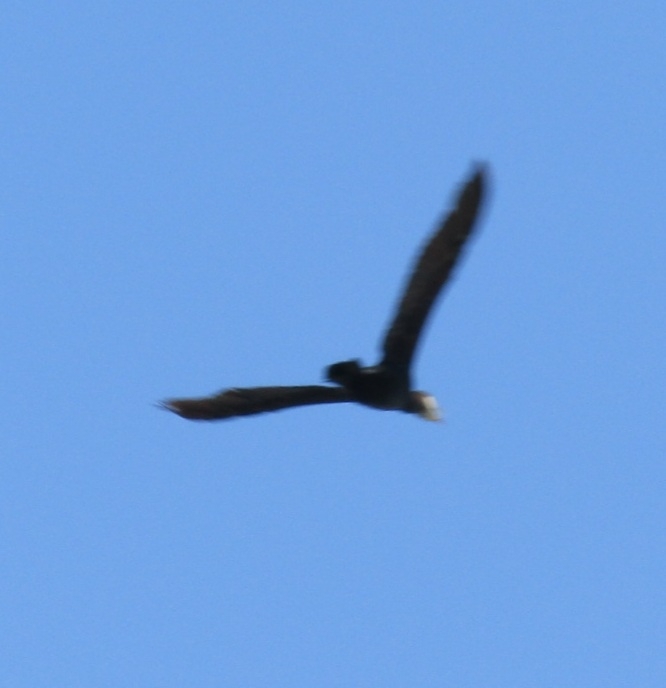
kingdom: Animalia
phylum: Chordata
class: Aves
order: Suliformes
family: Phalacrocoracidae
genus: Phalacrocorax
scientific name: Phalacrocorax carbo
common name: Great cormorant
